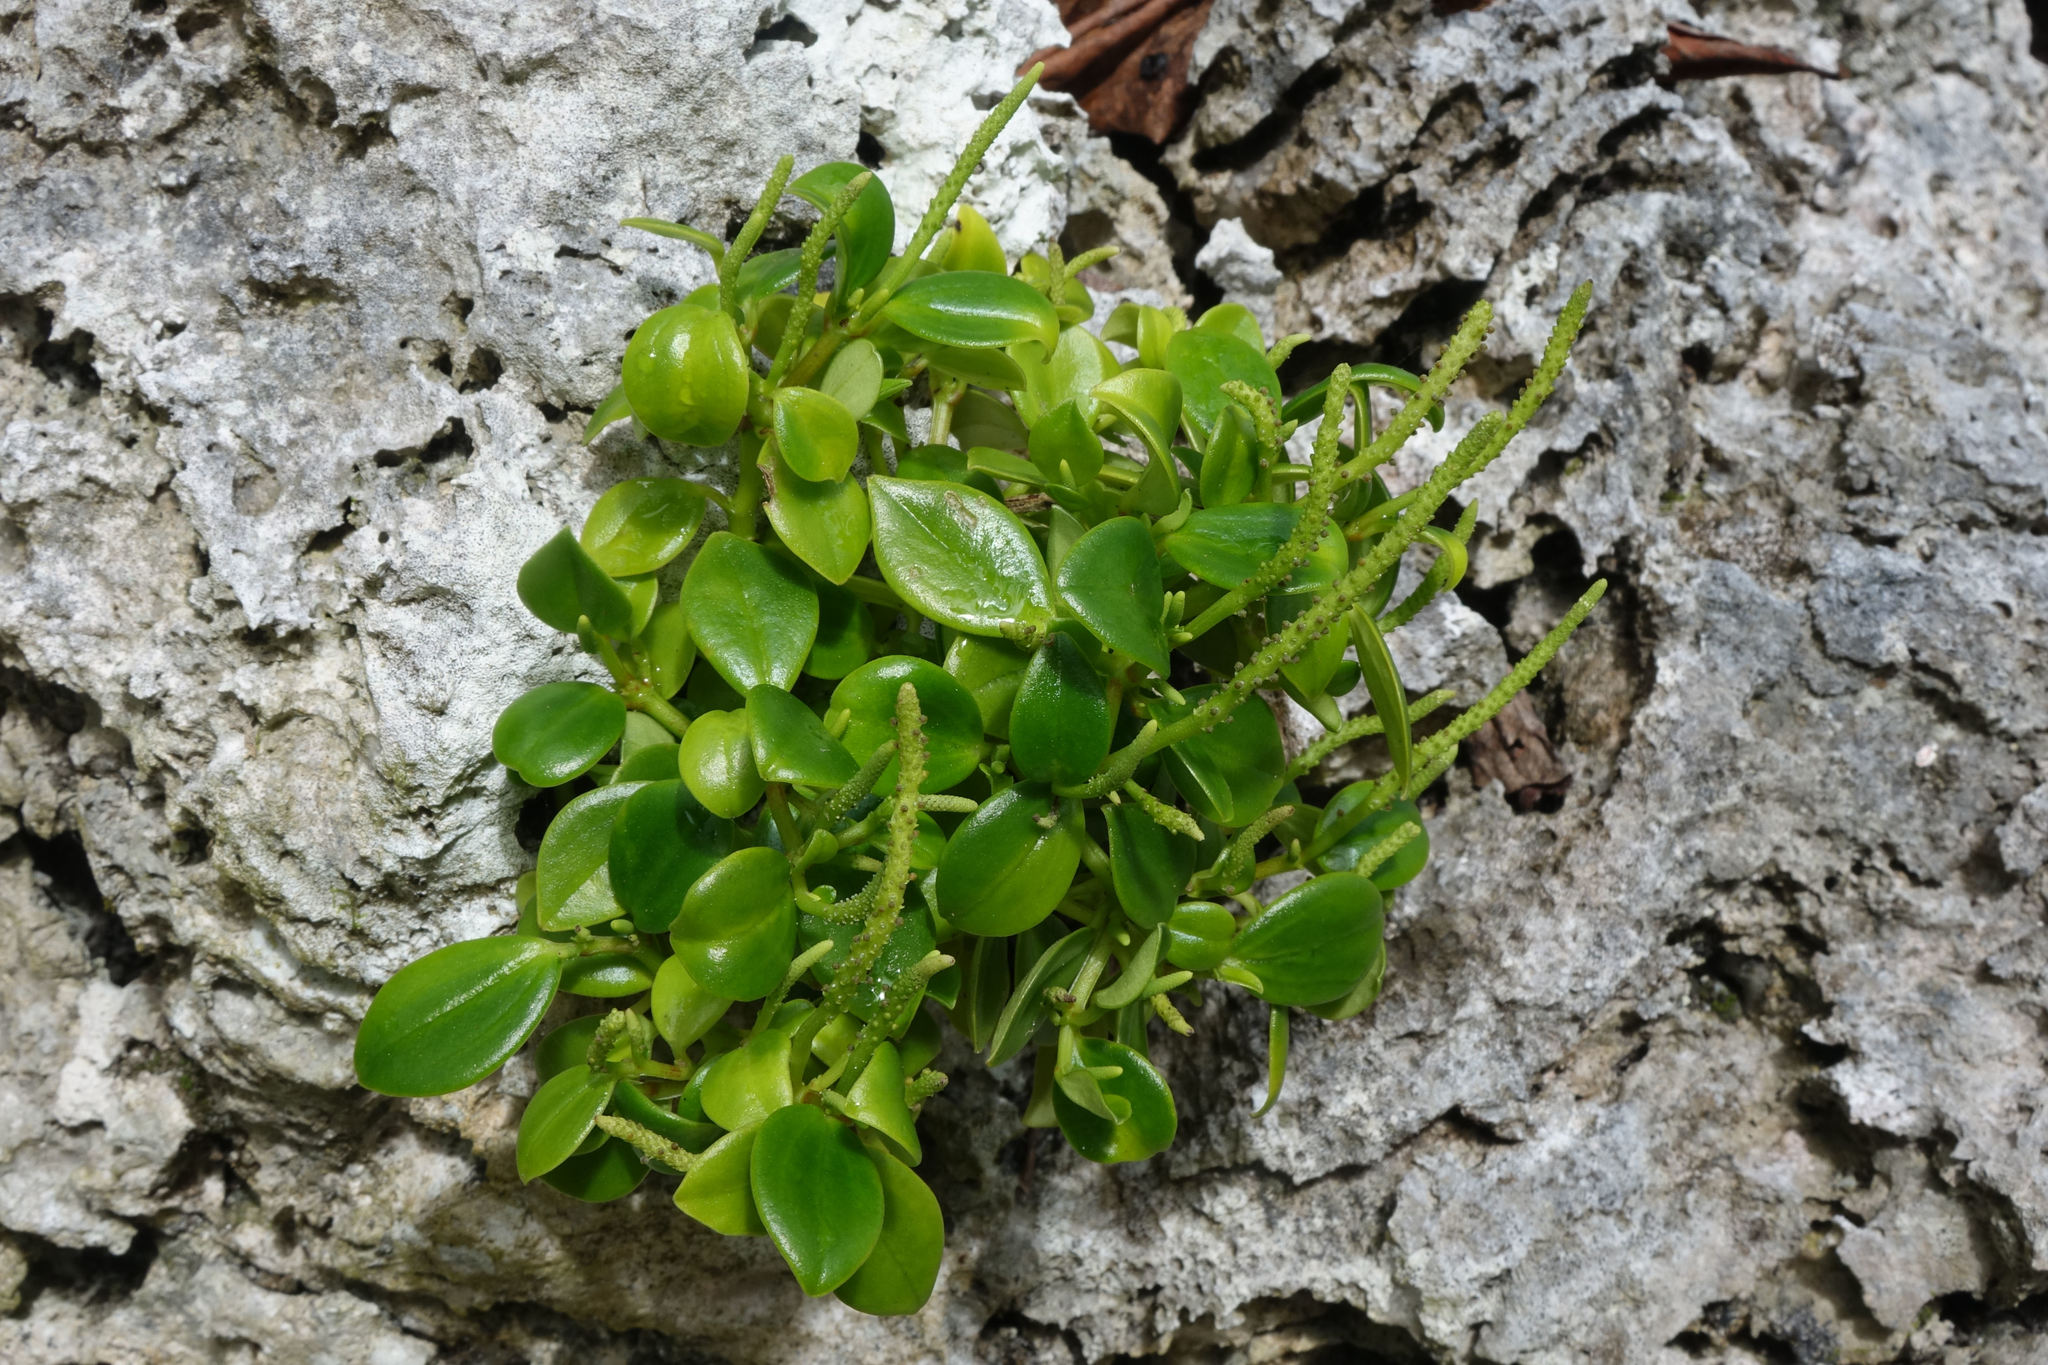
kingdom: Plantae
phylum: Tracheophyta
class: Magnoliopsida
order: Piperales
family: Piperaceae
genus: Peperomia
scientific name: Peperomia pallida
